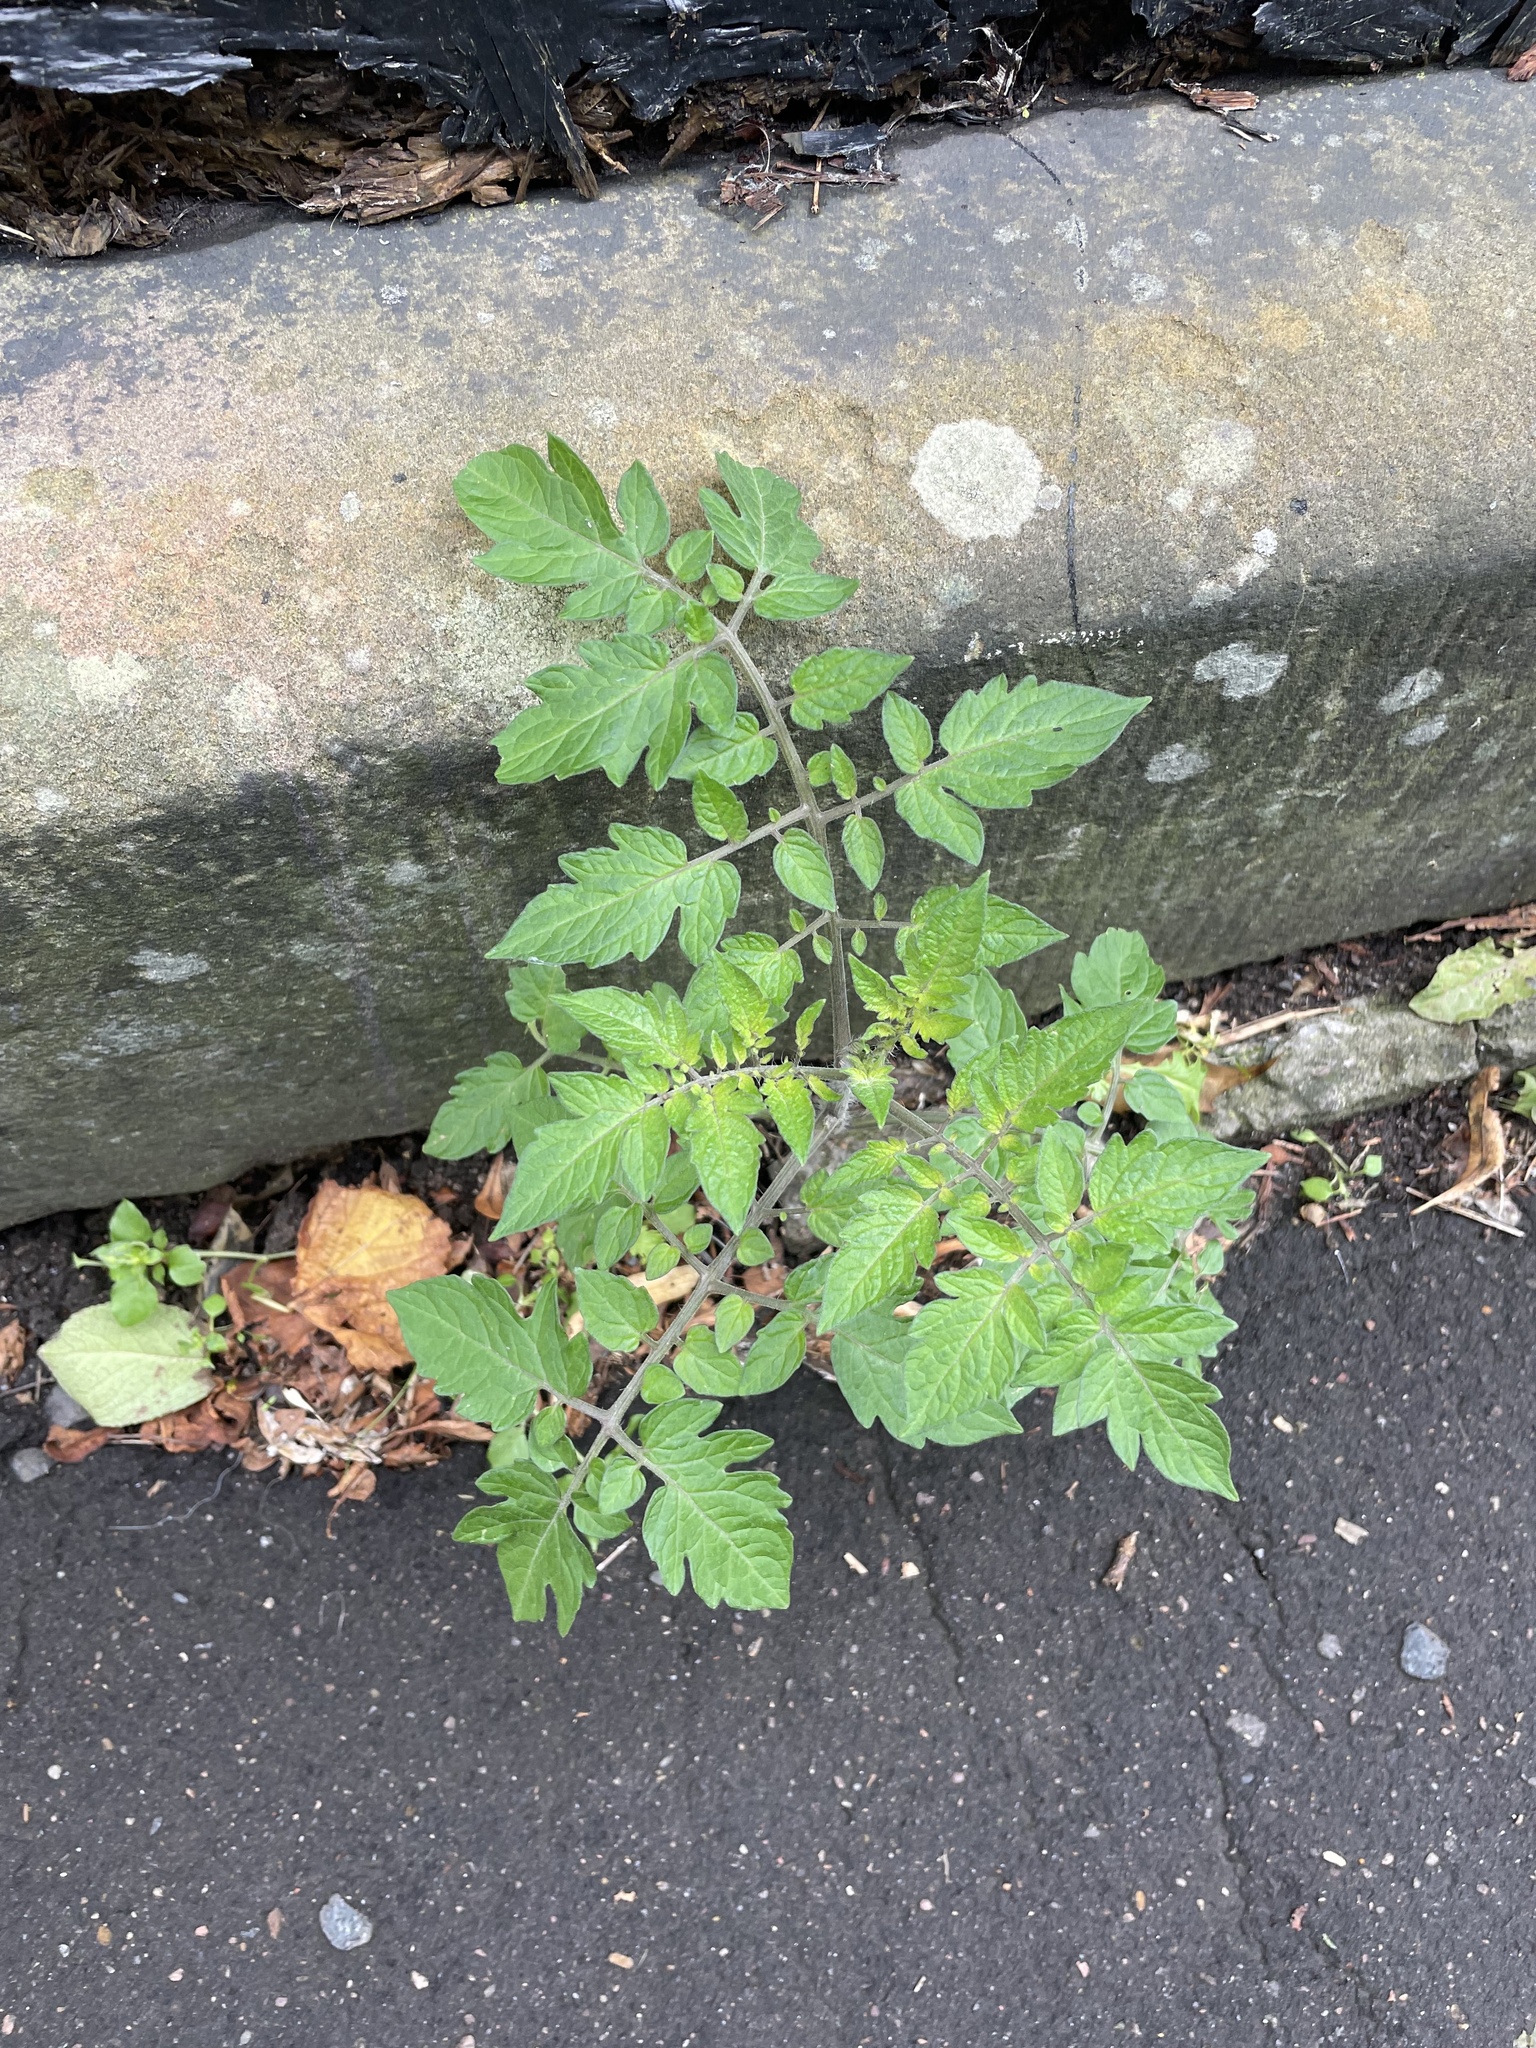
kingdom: Plantae
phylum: Tracheophyta
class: Magnoliopsida
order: Solanales
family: Solanaceae
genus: Solanum
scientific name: Solanum lycopersicum
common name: Garden tomato
